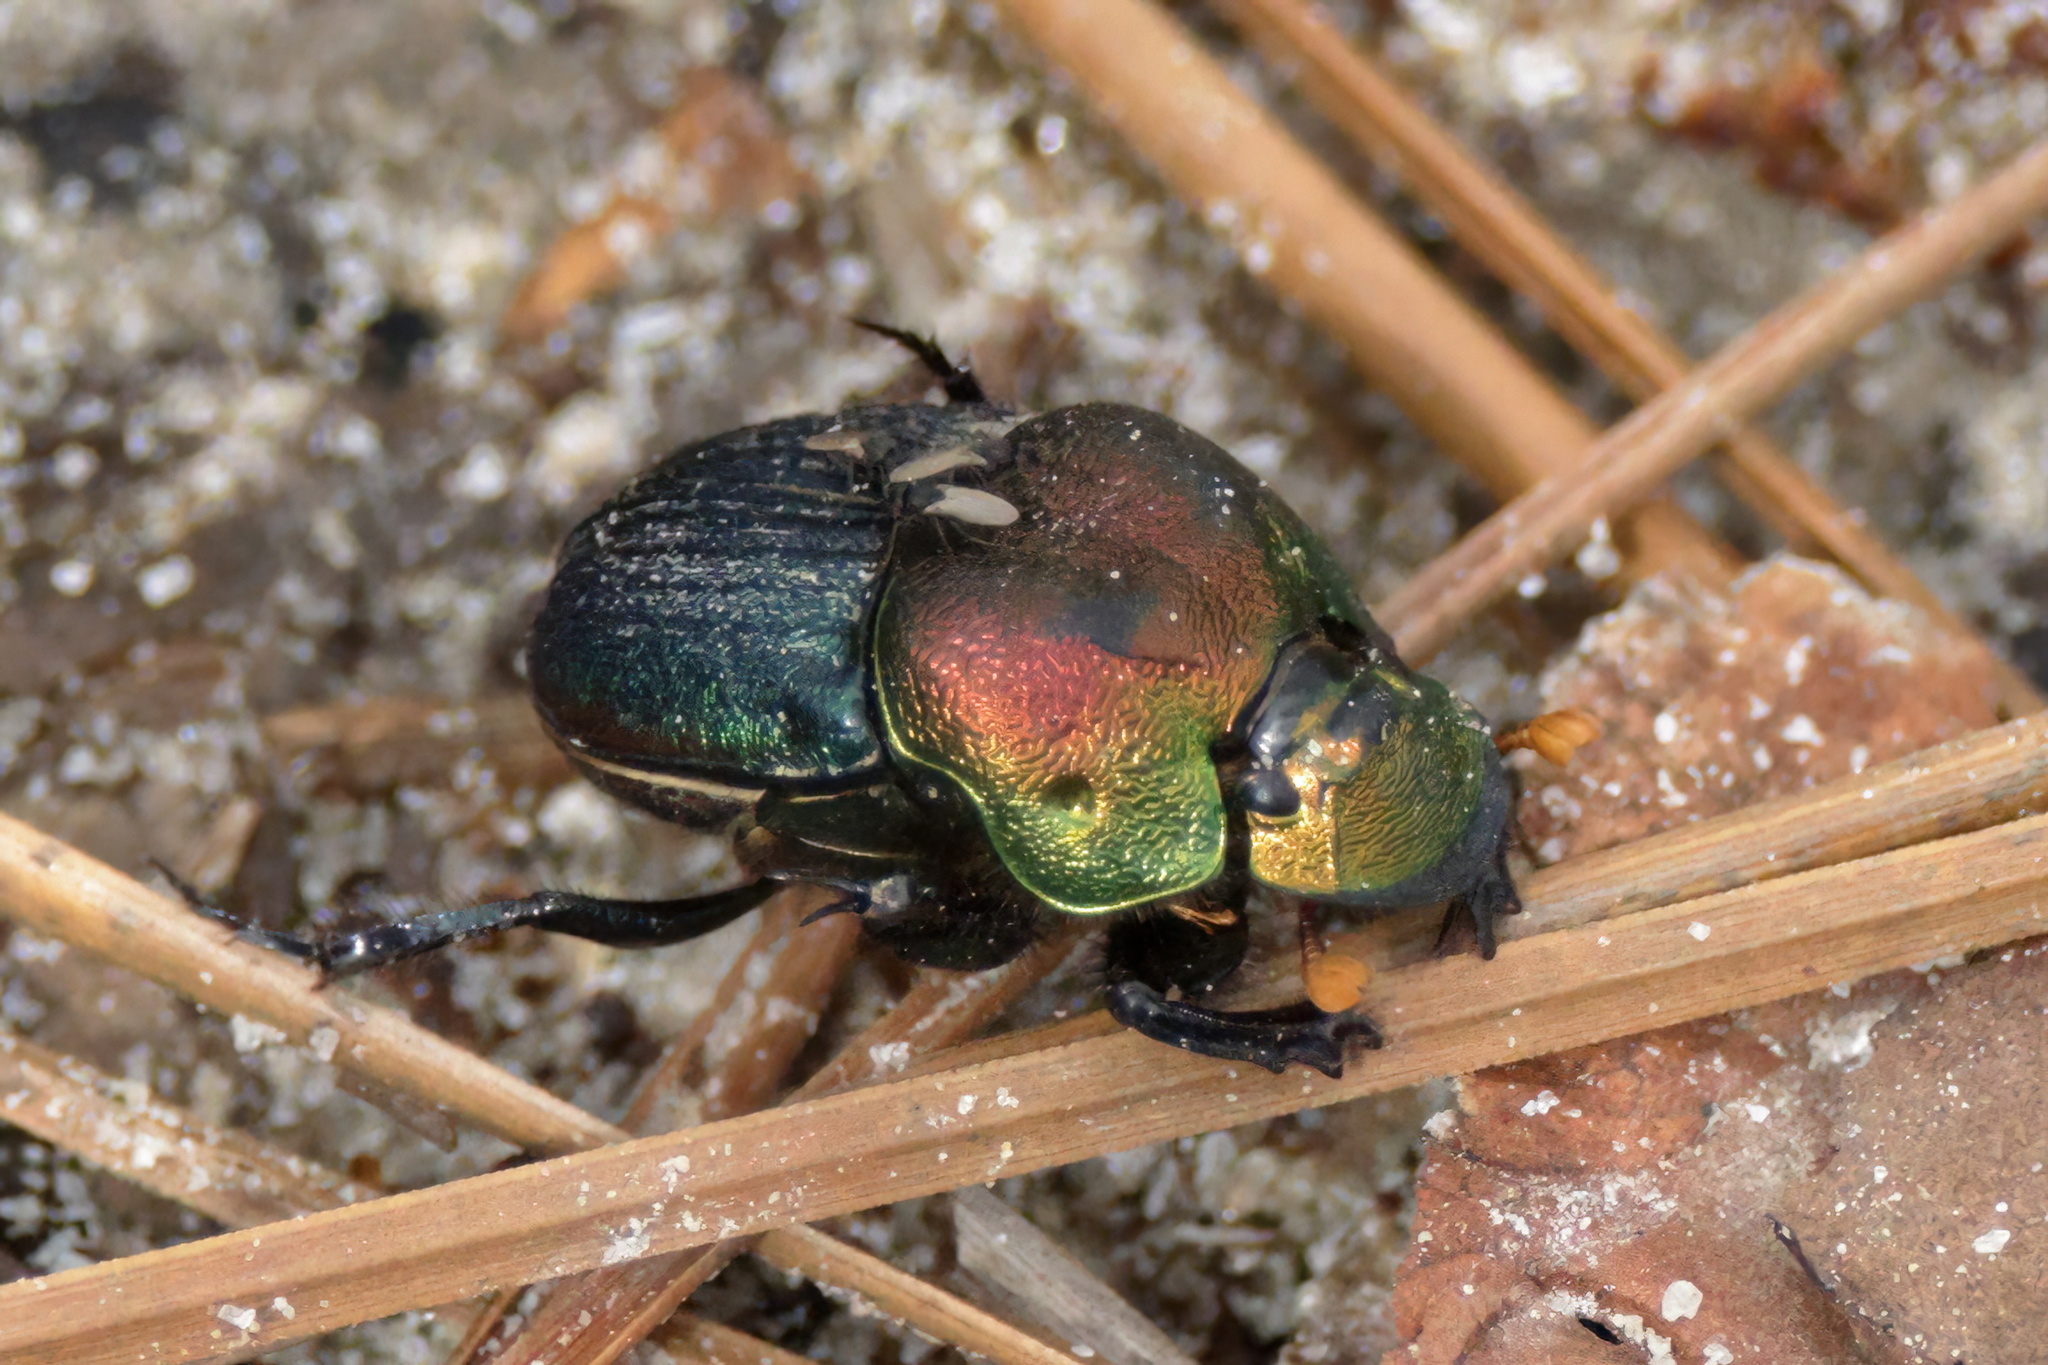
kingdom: Animalia
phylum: Arthropoda
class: Insecta
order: Coleoptera
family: Scarabaeidae
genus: Phanaeus
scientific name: Phanaeus vindex
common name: Rainbow scarab
